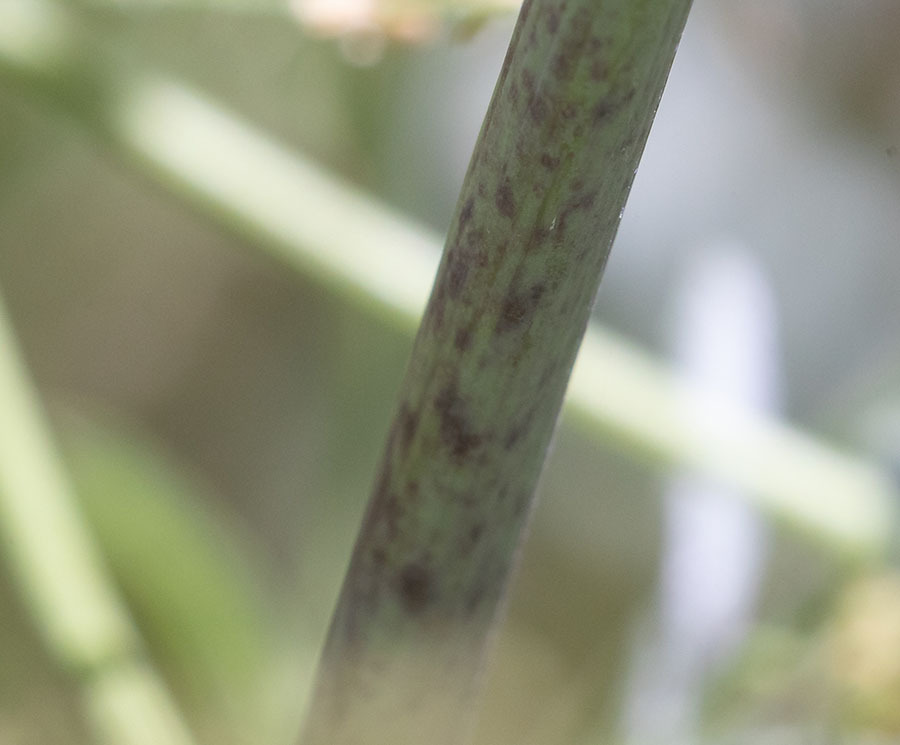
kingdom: Plantae
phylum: Tracheophyta
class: Magnoliopsida
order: Apiales
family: Apiaceae
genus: Conium
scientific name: Conium maculatum
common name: Hemlock
